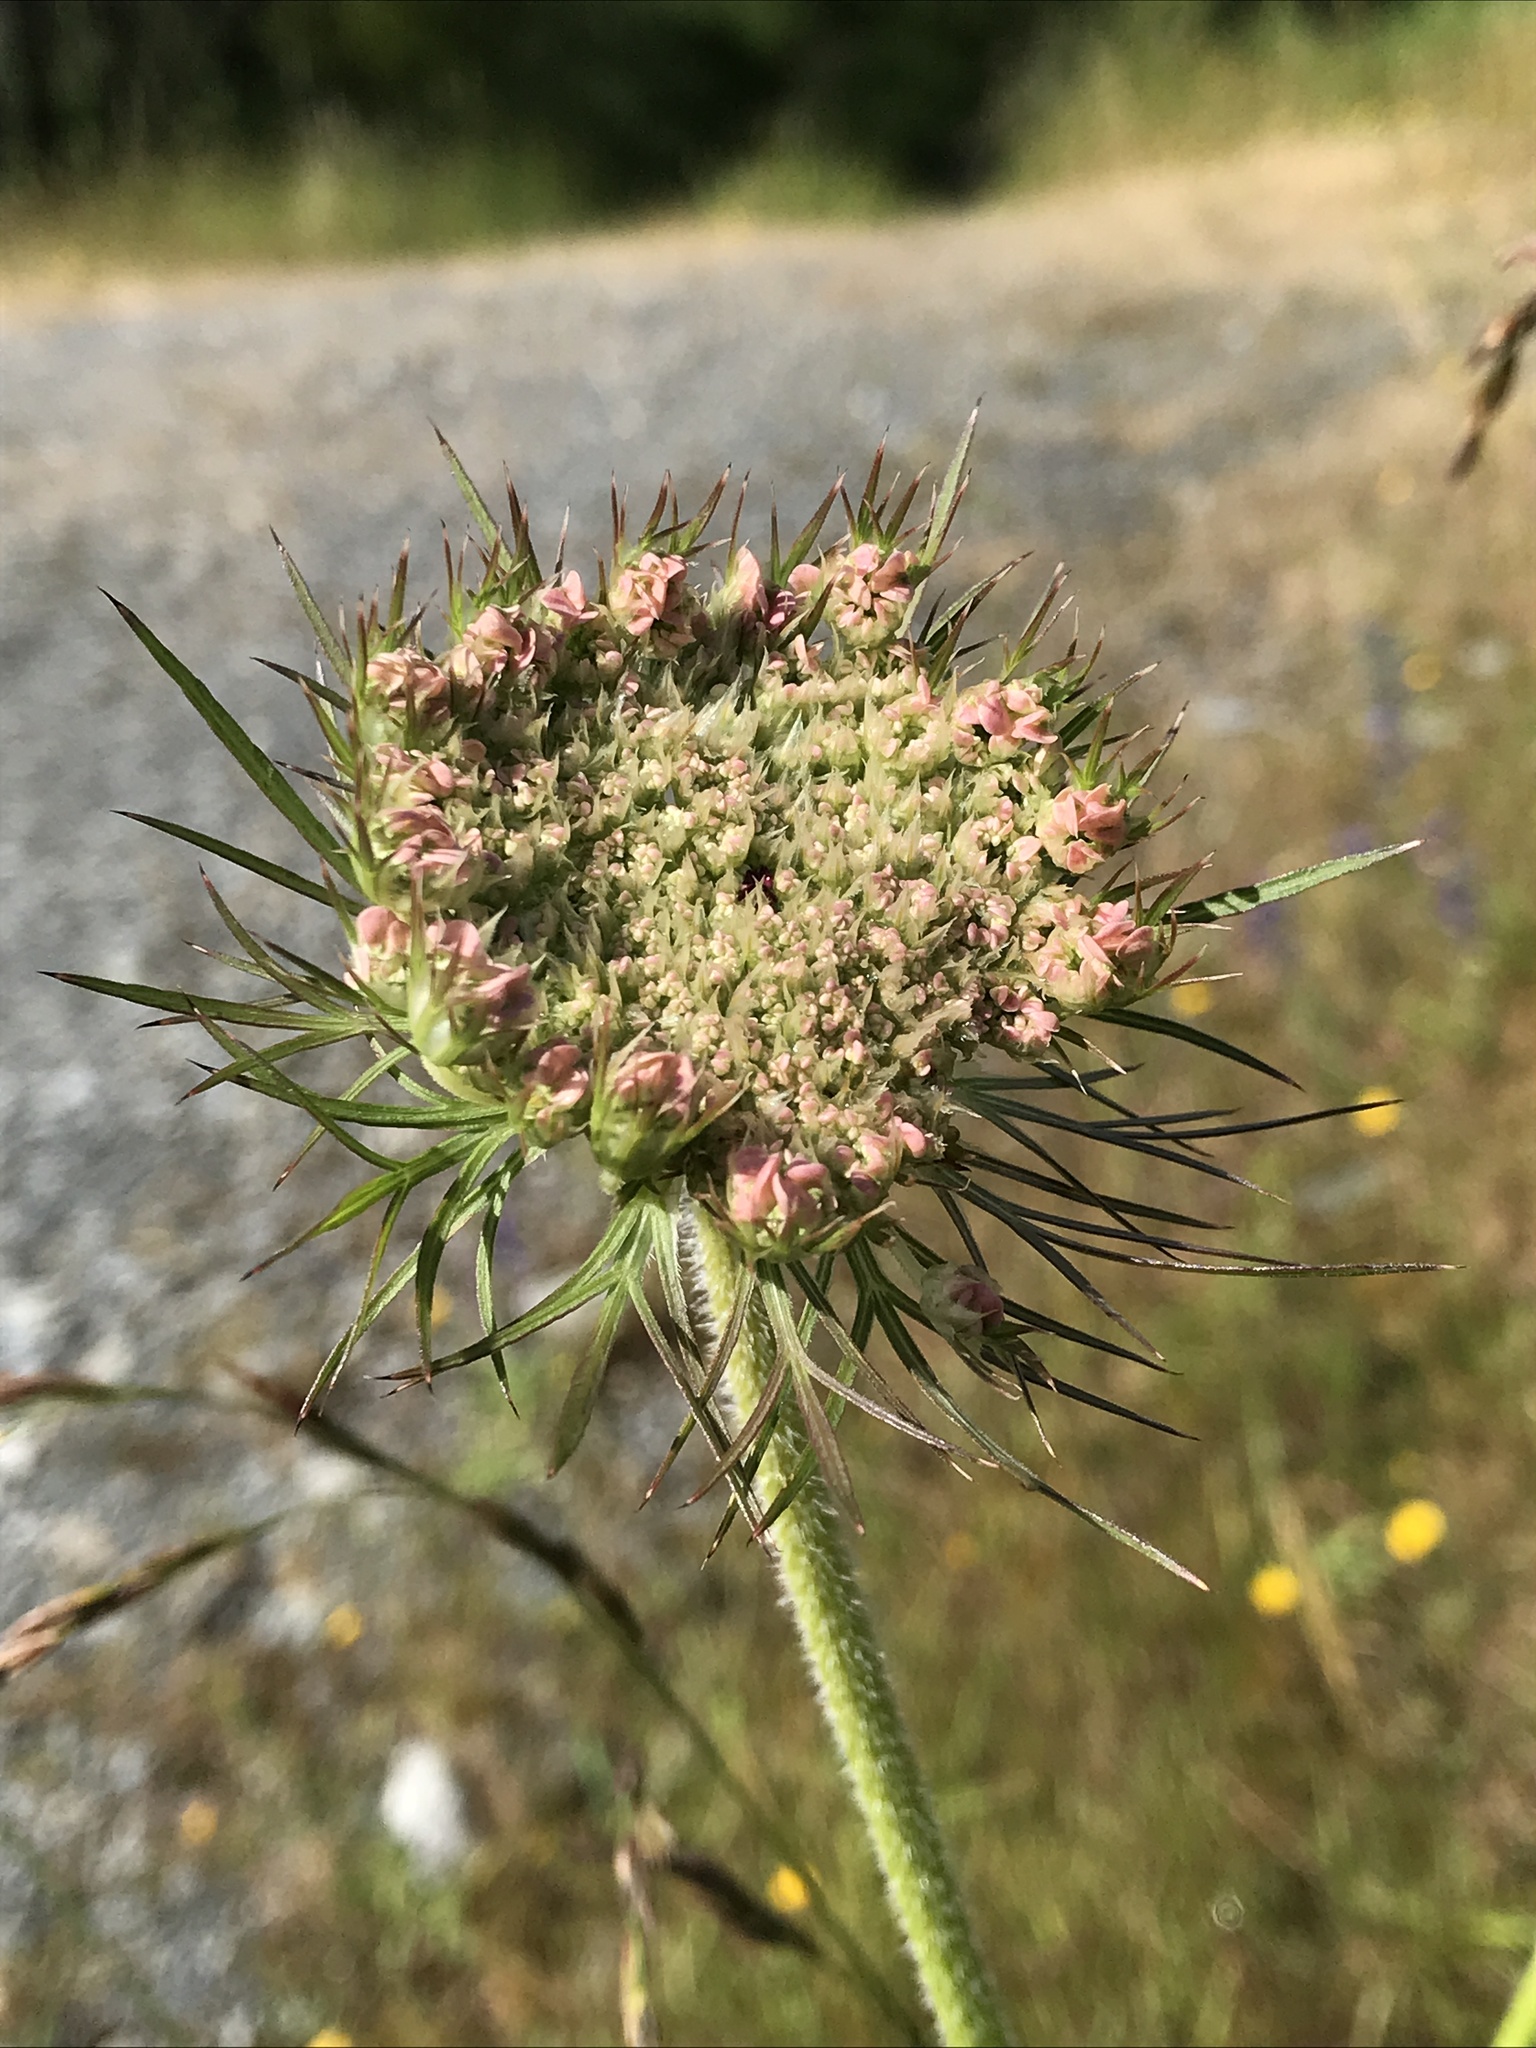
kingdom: Plantae
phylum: Tracheophyta
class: Magnoliopsida
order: Apiales
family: Apiaceae
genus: Daucus
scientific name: Daucus carota
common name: Wild carrot
